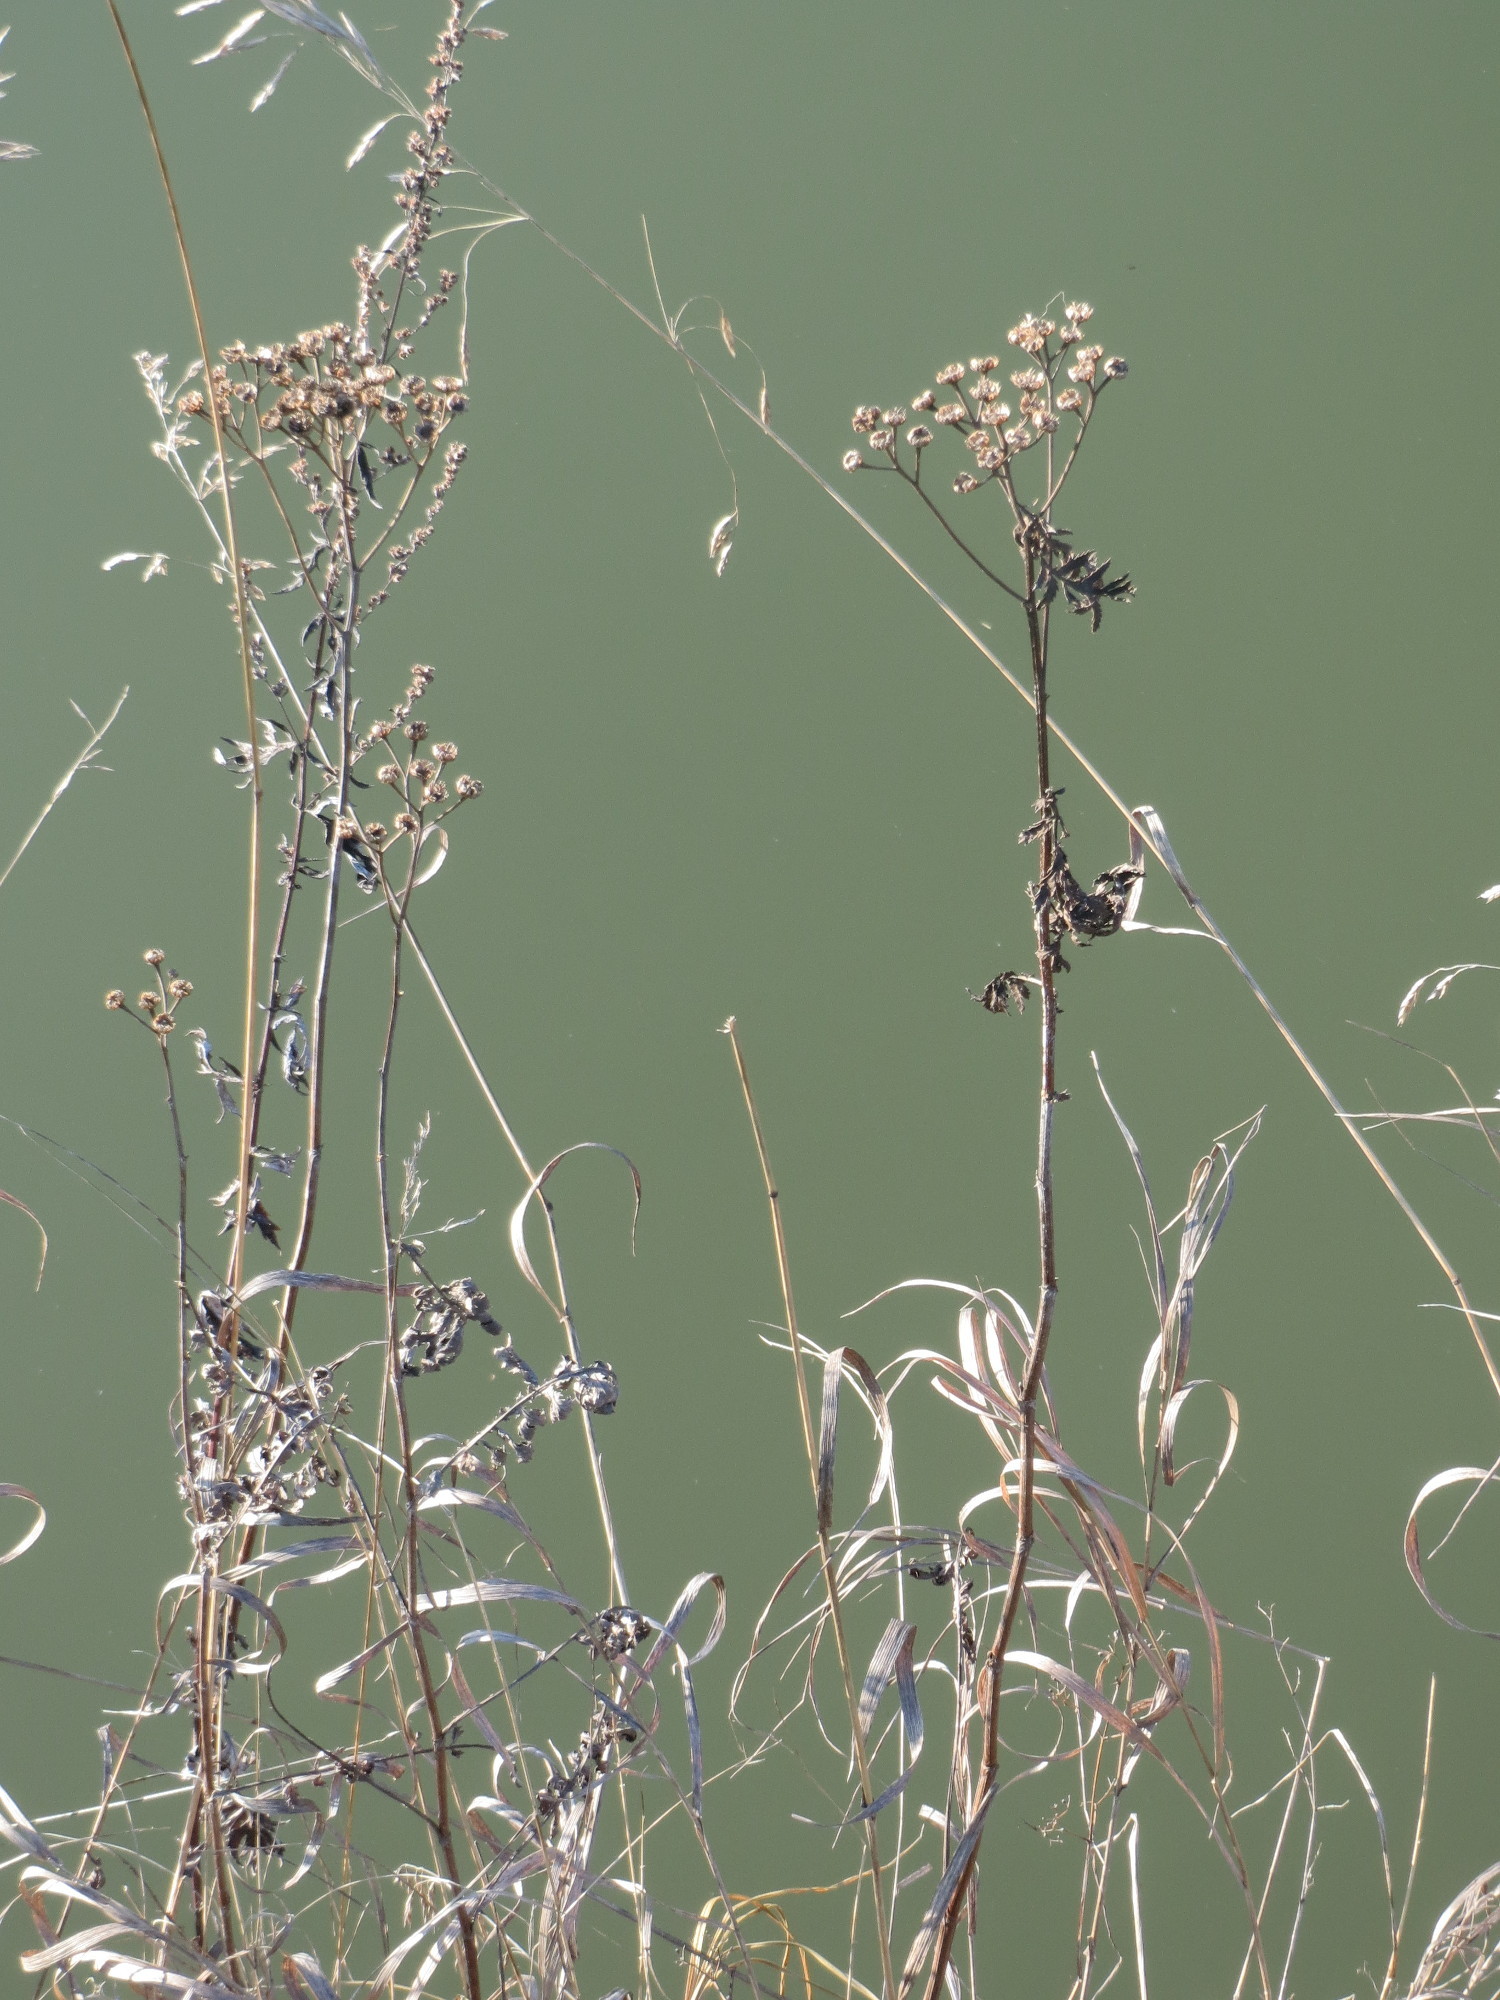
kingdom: Plantae
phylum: Tracheophyta
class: Magnoliopsida
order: Asterales
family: Asteraceae
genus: Tanacetum
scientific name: Tanacetum vulgare
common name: Common tansy
